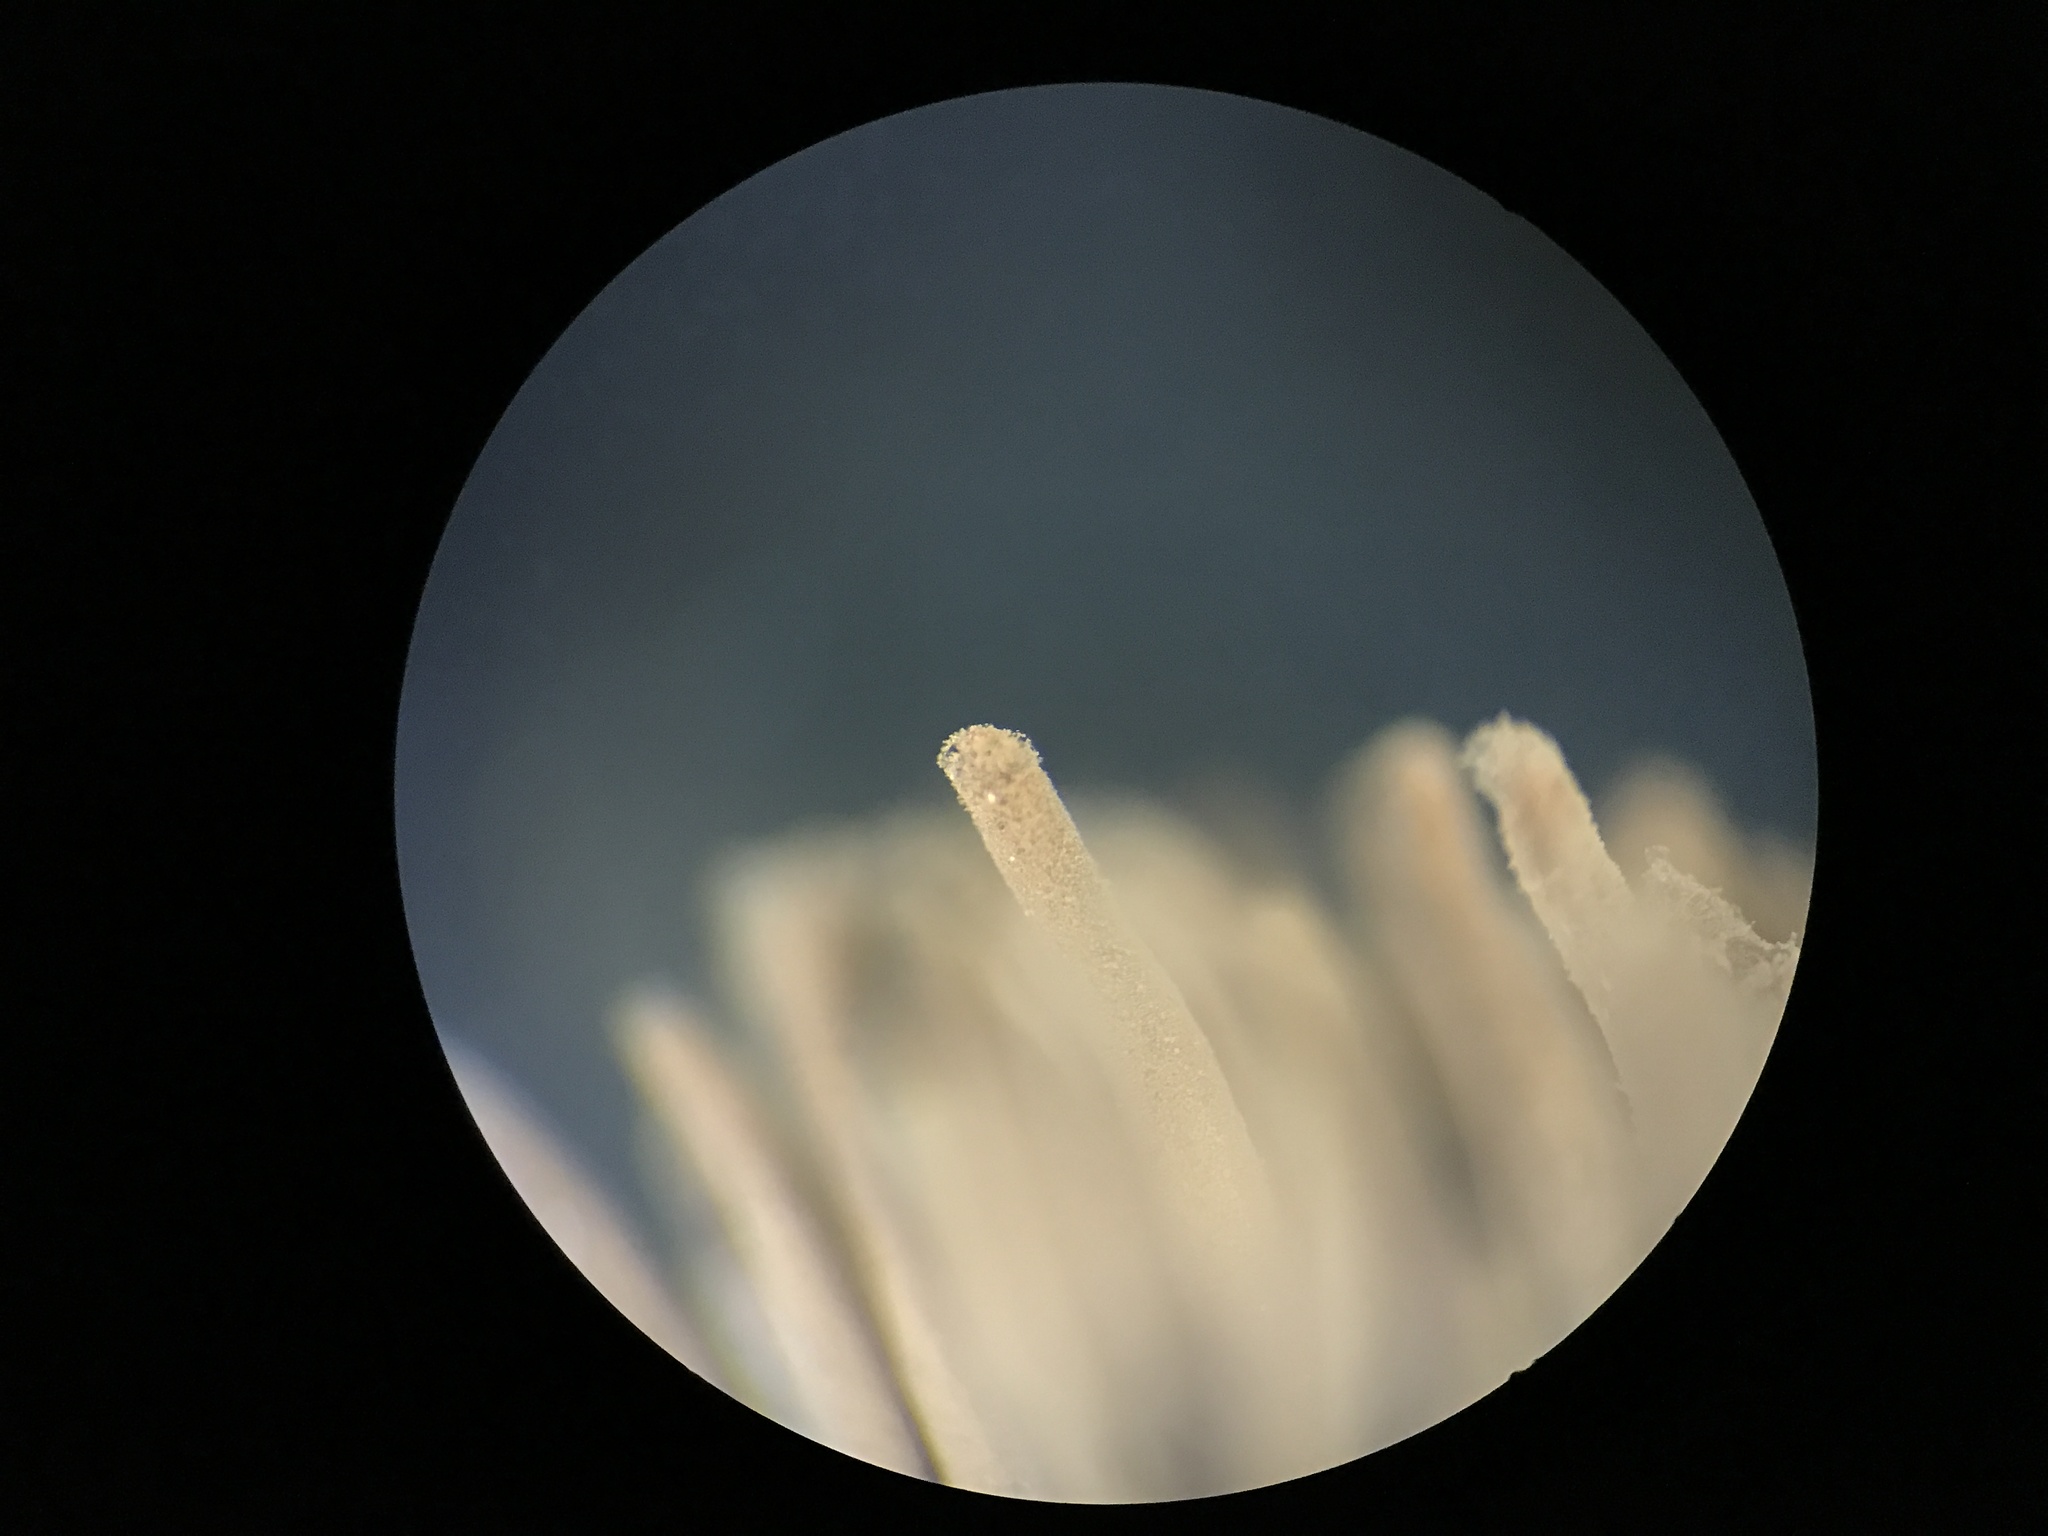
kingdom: Protozoa
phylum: Mycetozoa
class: Myxomycetes
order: Stemonitidales
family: Stemonitidaceae
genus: Stemonitis
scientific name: Stemonitis splendens
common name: Chocolate tube slime
